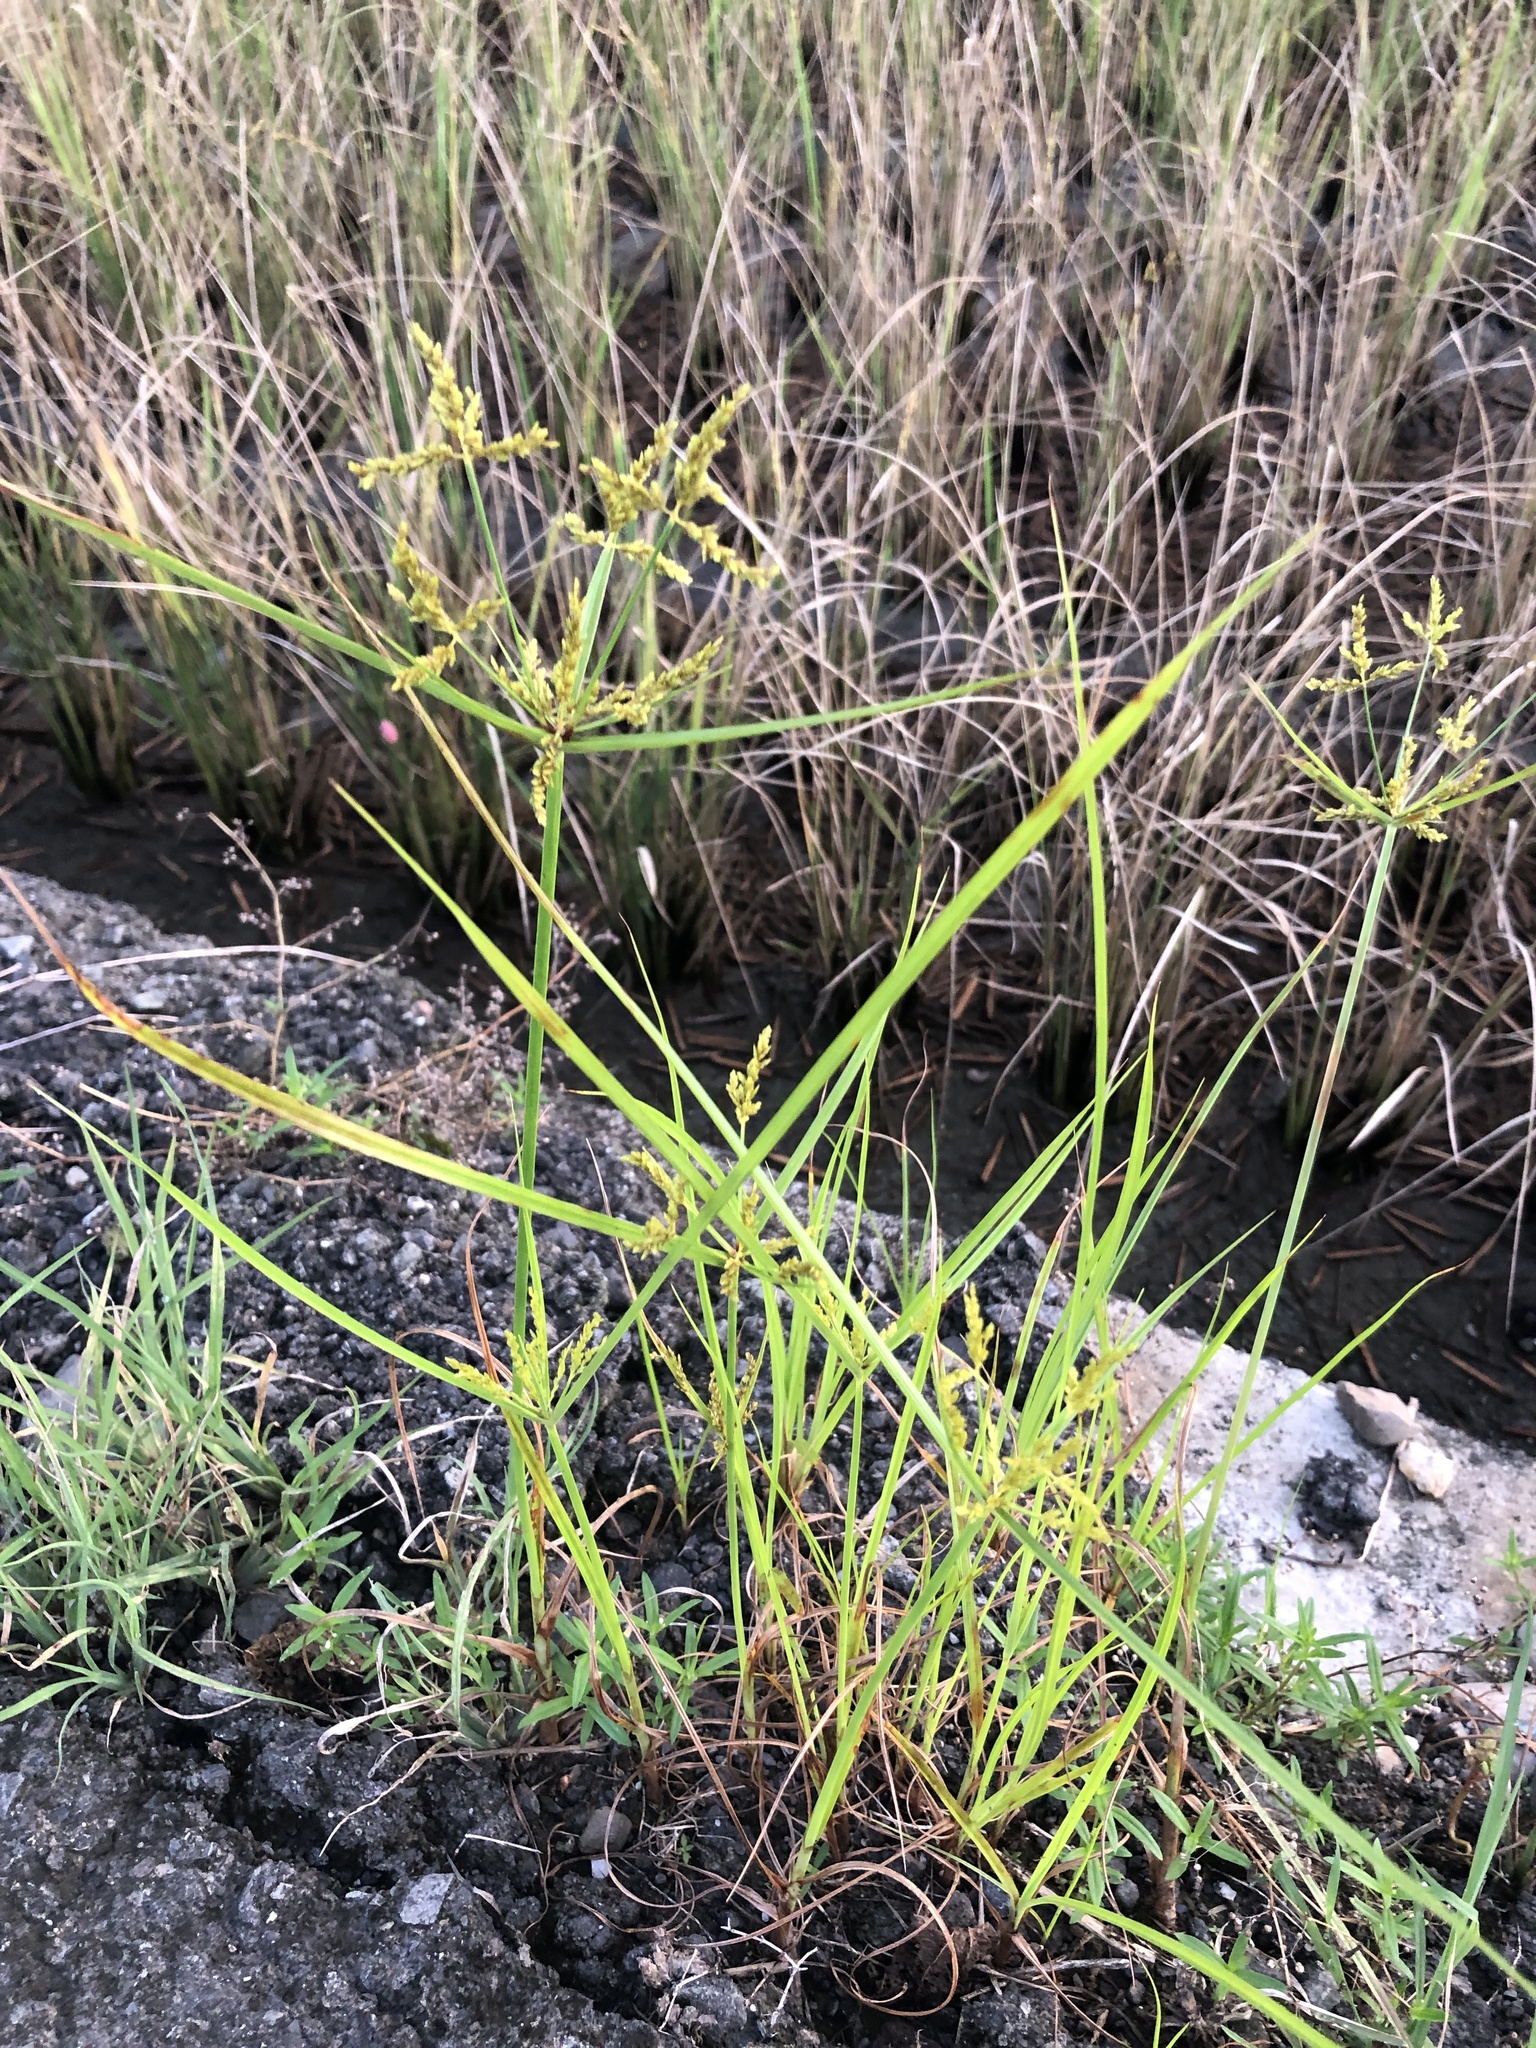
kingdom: Plantae
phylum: Tracheophyta
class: Liliopsida
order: Poales
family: Cyperaceae
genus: Cyperus
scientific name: Cyperus iria
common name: Ricefield flatsedge
